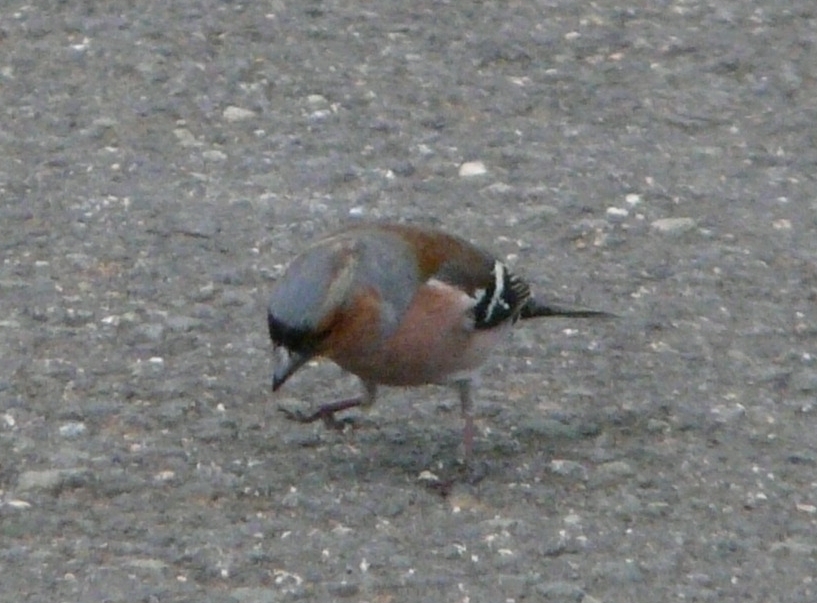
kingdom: Animalia
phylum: Chordata
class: Aves
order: Passeriformes
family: Fringillidae
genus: Fringilla
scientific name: Fringilla coelebs
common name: Common chaffinch
